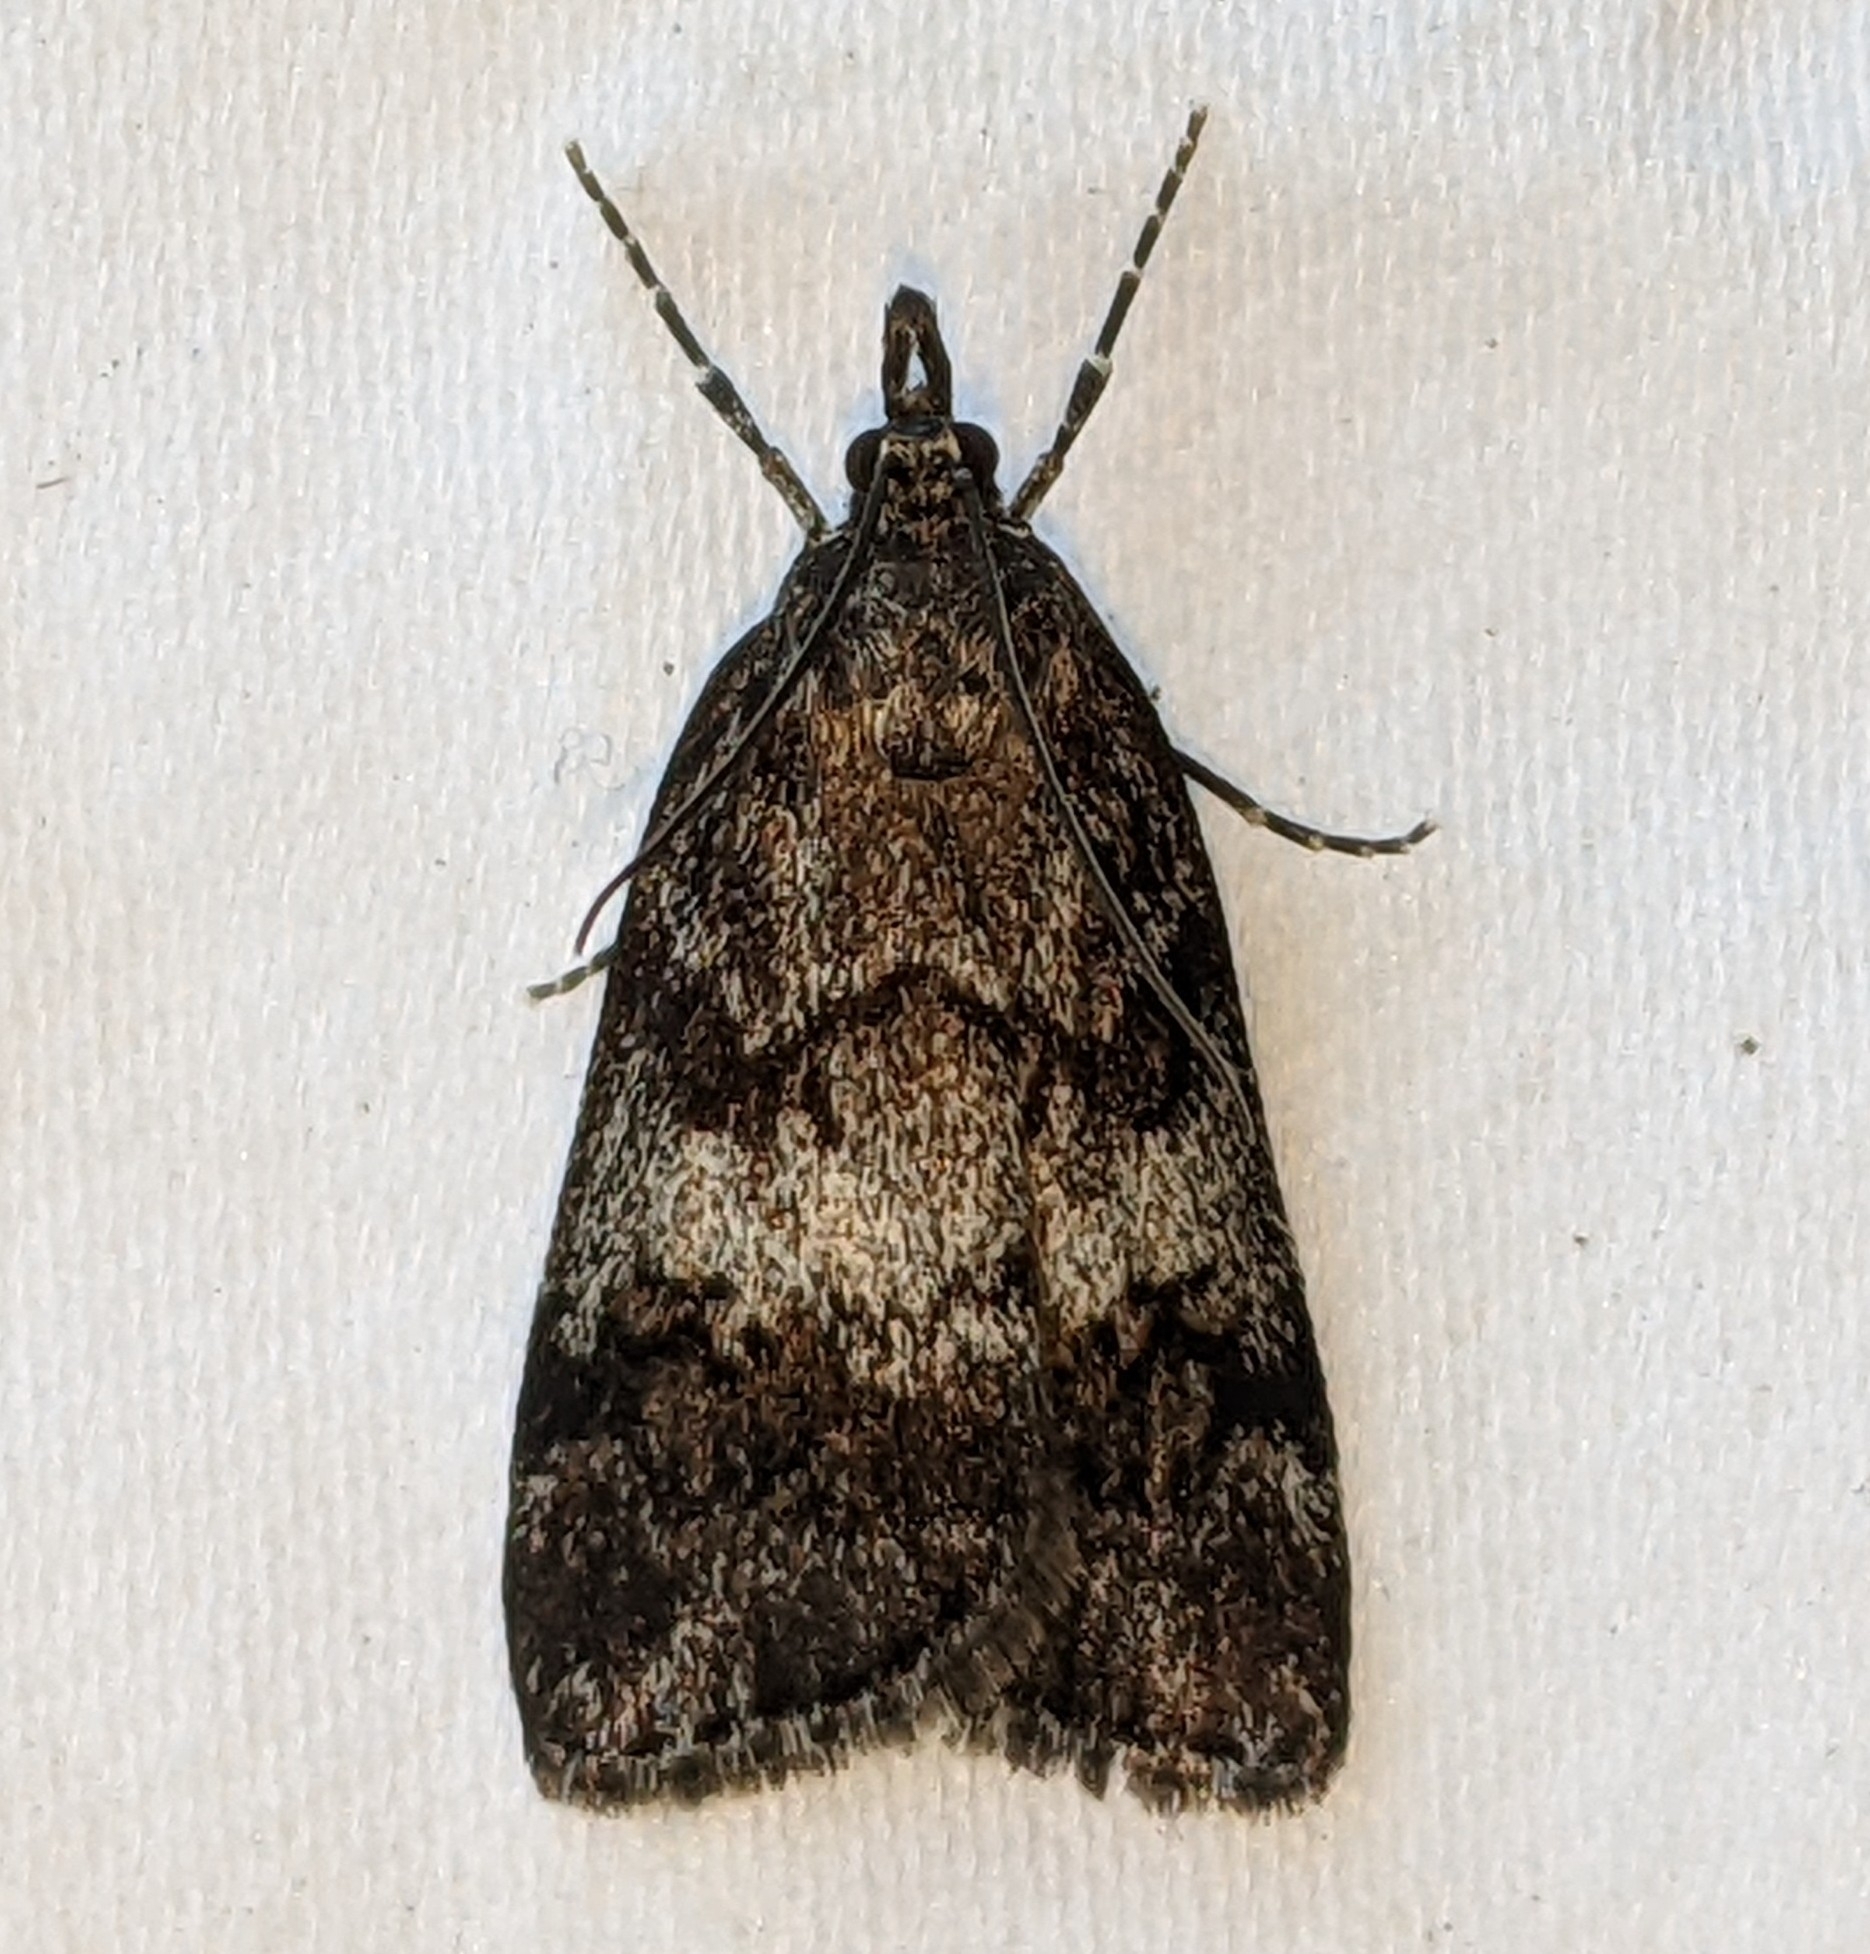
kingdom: Animalia
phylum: Arthropoda
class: Insecta
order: Lepidoptera
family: Crambidae
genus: Gesneria
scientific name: Gesneria centuriella
